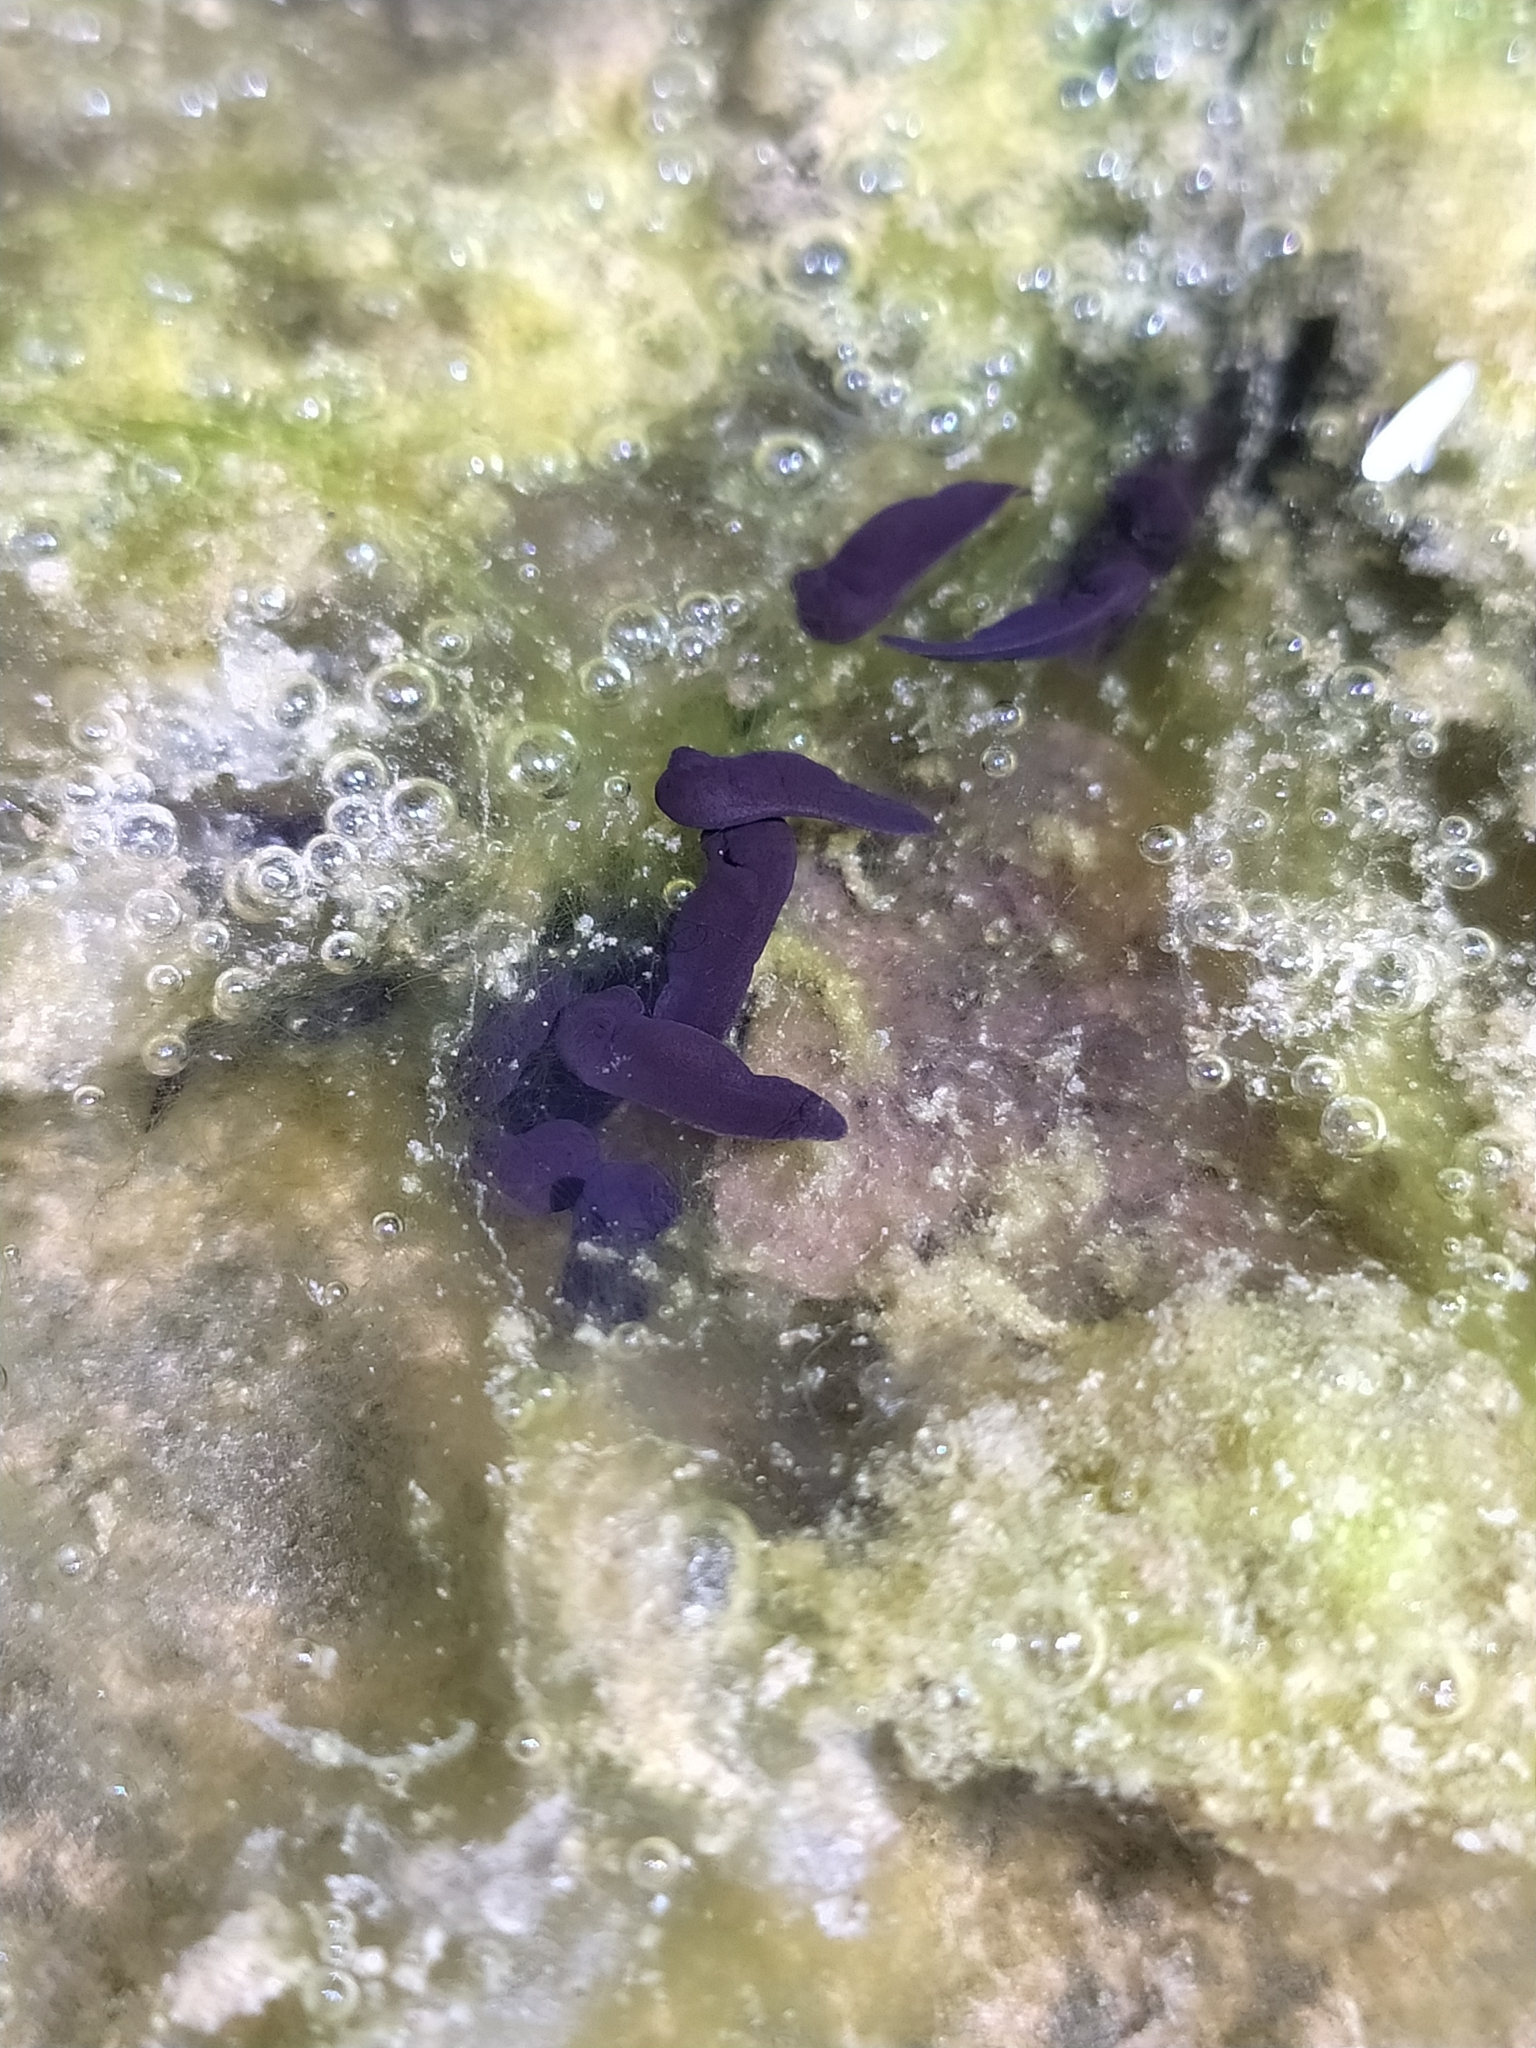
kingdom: Animalia
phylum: Chordata
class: Amphibia
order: Anura
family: Bufonidae
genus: Bufo
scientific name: Bufo bufo
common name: Common toad
